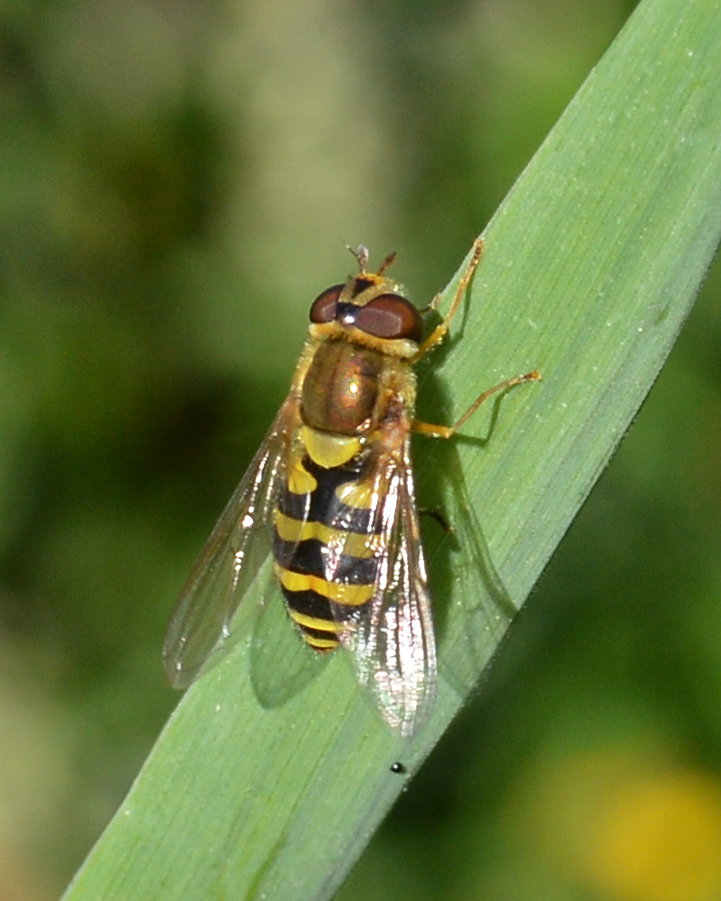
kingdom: Animalia
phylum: Arthropoda
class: Insecta
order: Diptera
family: Syrphidae
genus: Syrphus
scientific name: Syrphus
